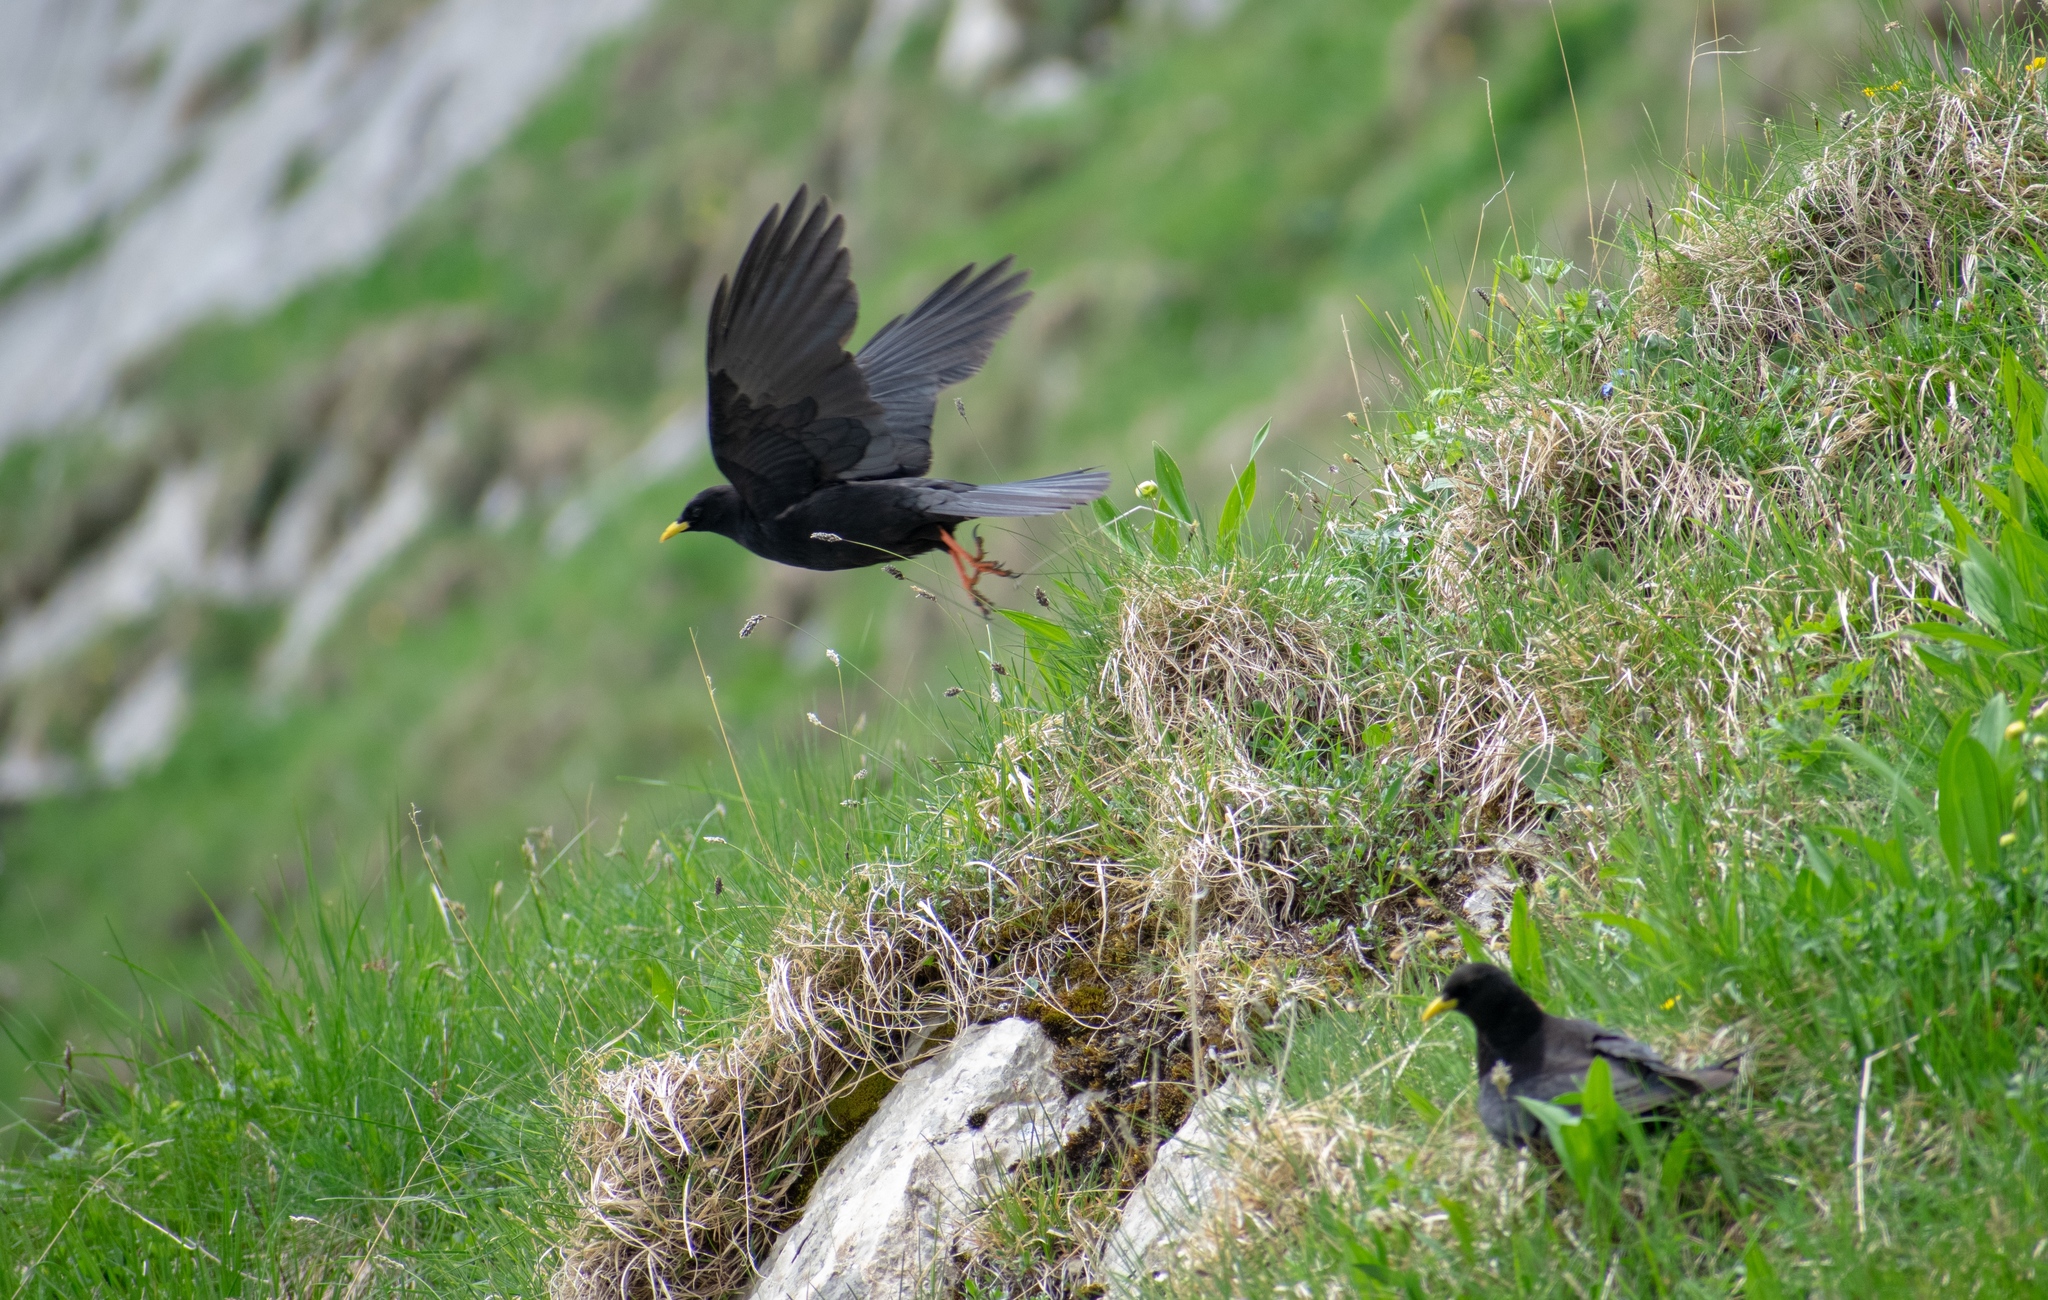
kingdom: Animalia
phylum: Chordata
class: Aves
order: Passeriformes
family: Corvidae
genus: Pyrrhocorax
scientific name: Pyrrhocorax graculus
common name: Alpine chough
